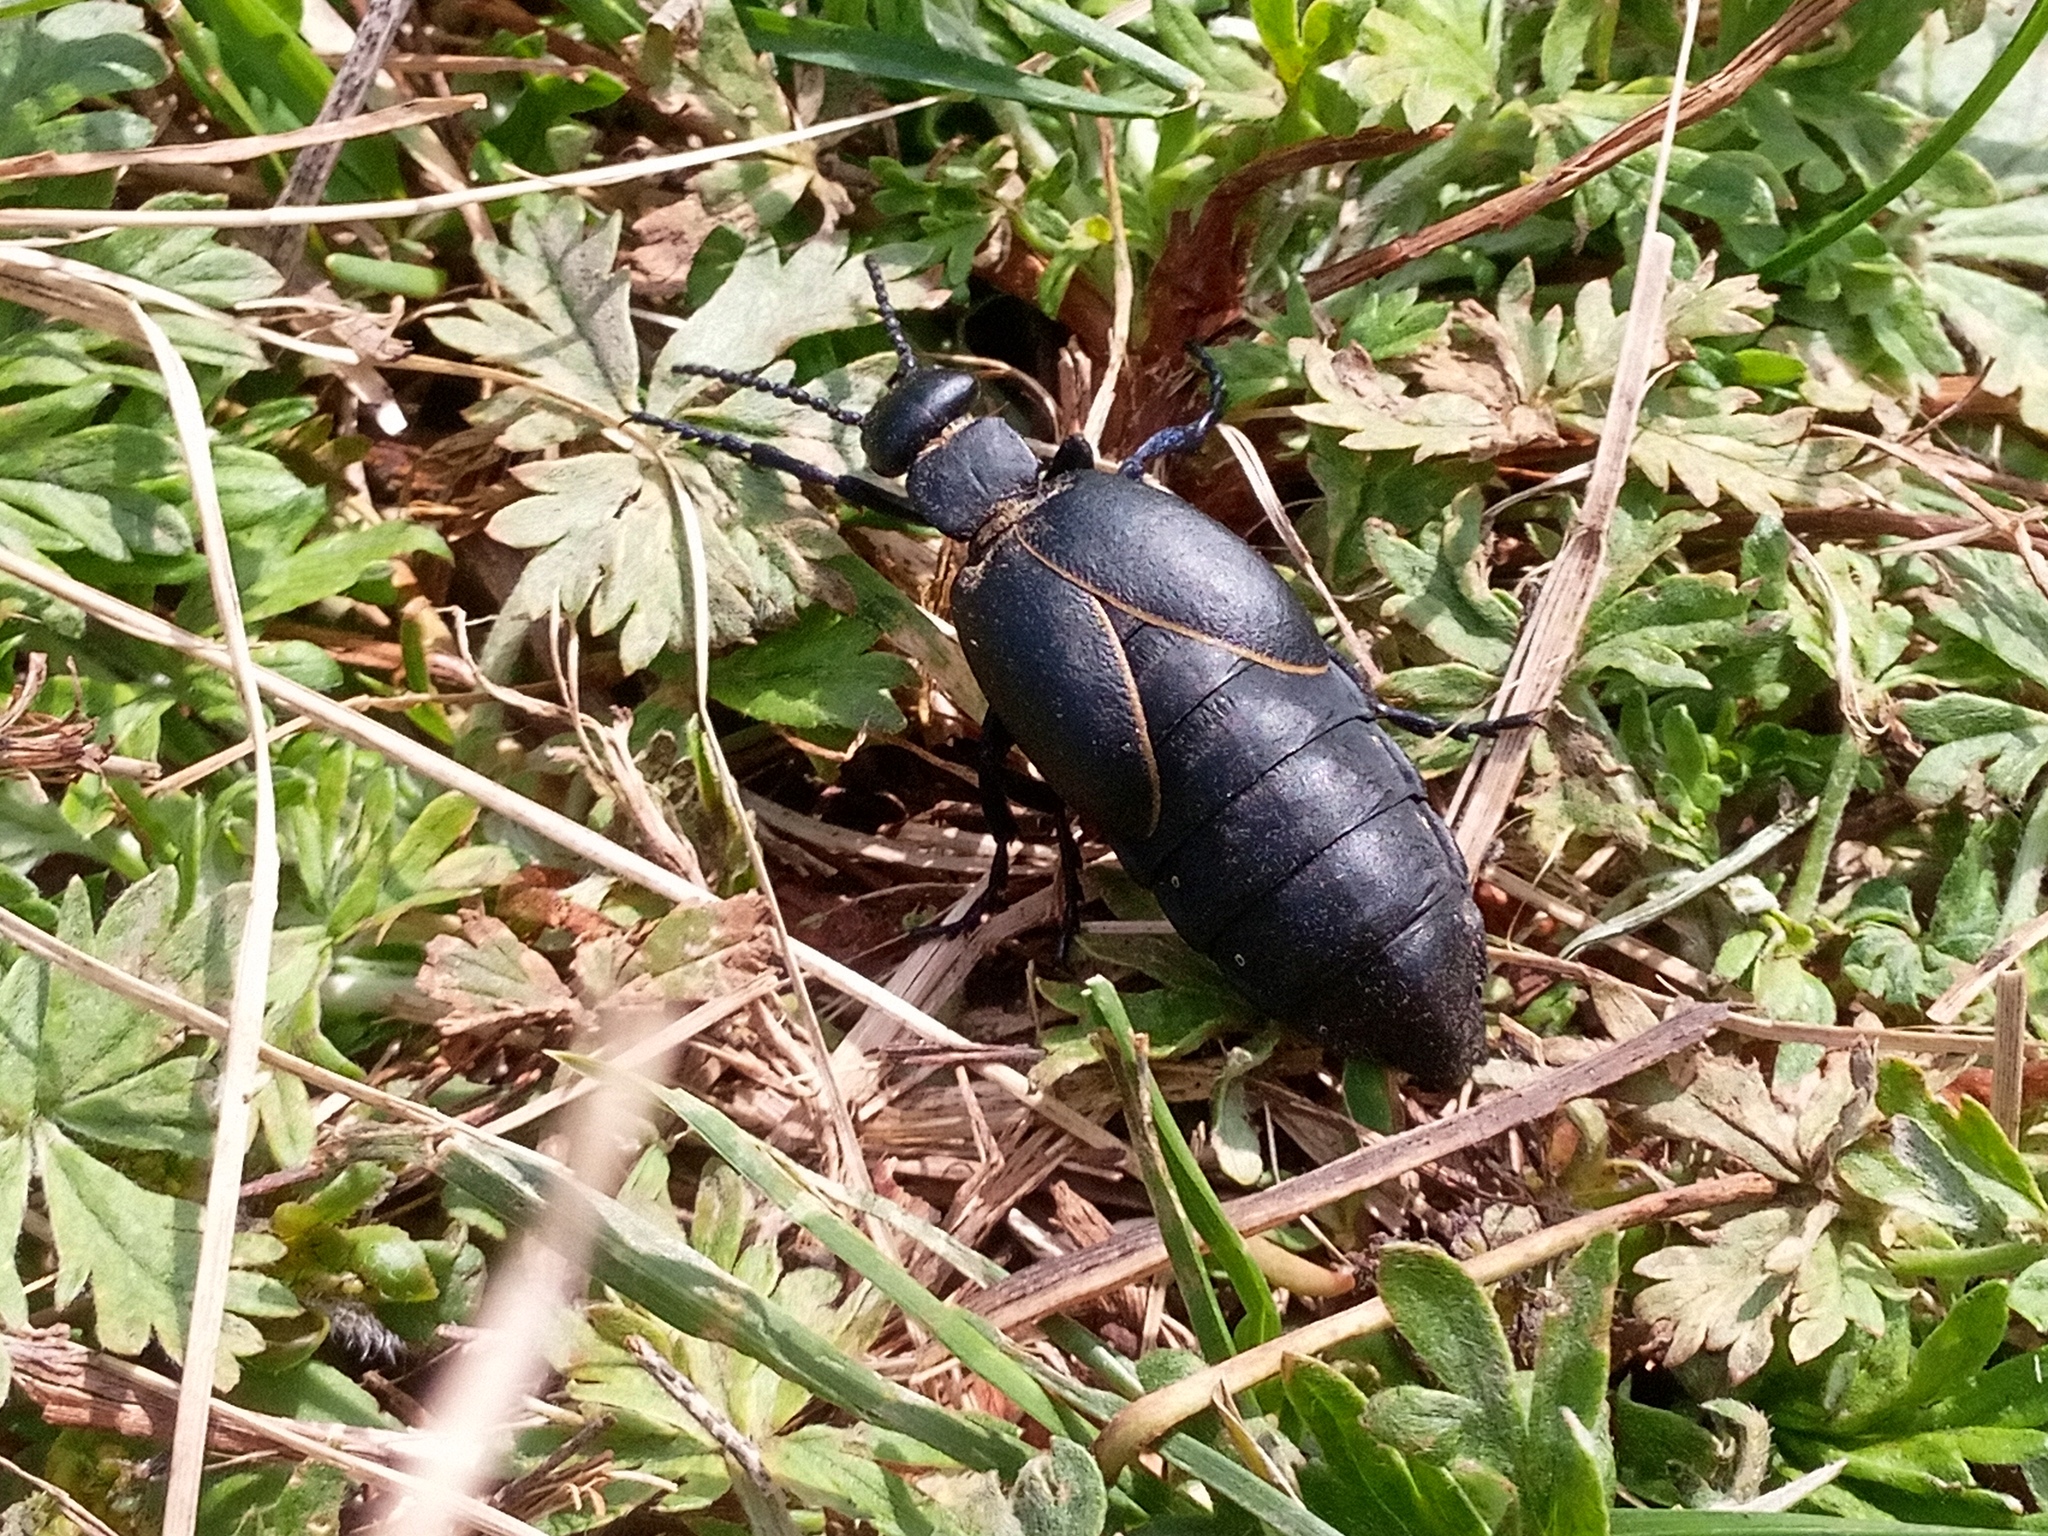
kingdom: Animalia
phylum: Arthropoda
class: Insecta
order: Coleoptera
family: Meloidae
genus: Meloe
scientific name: Meloe hungarus
